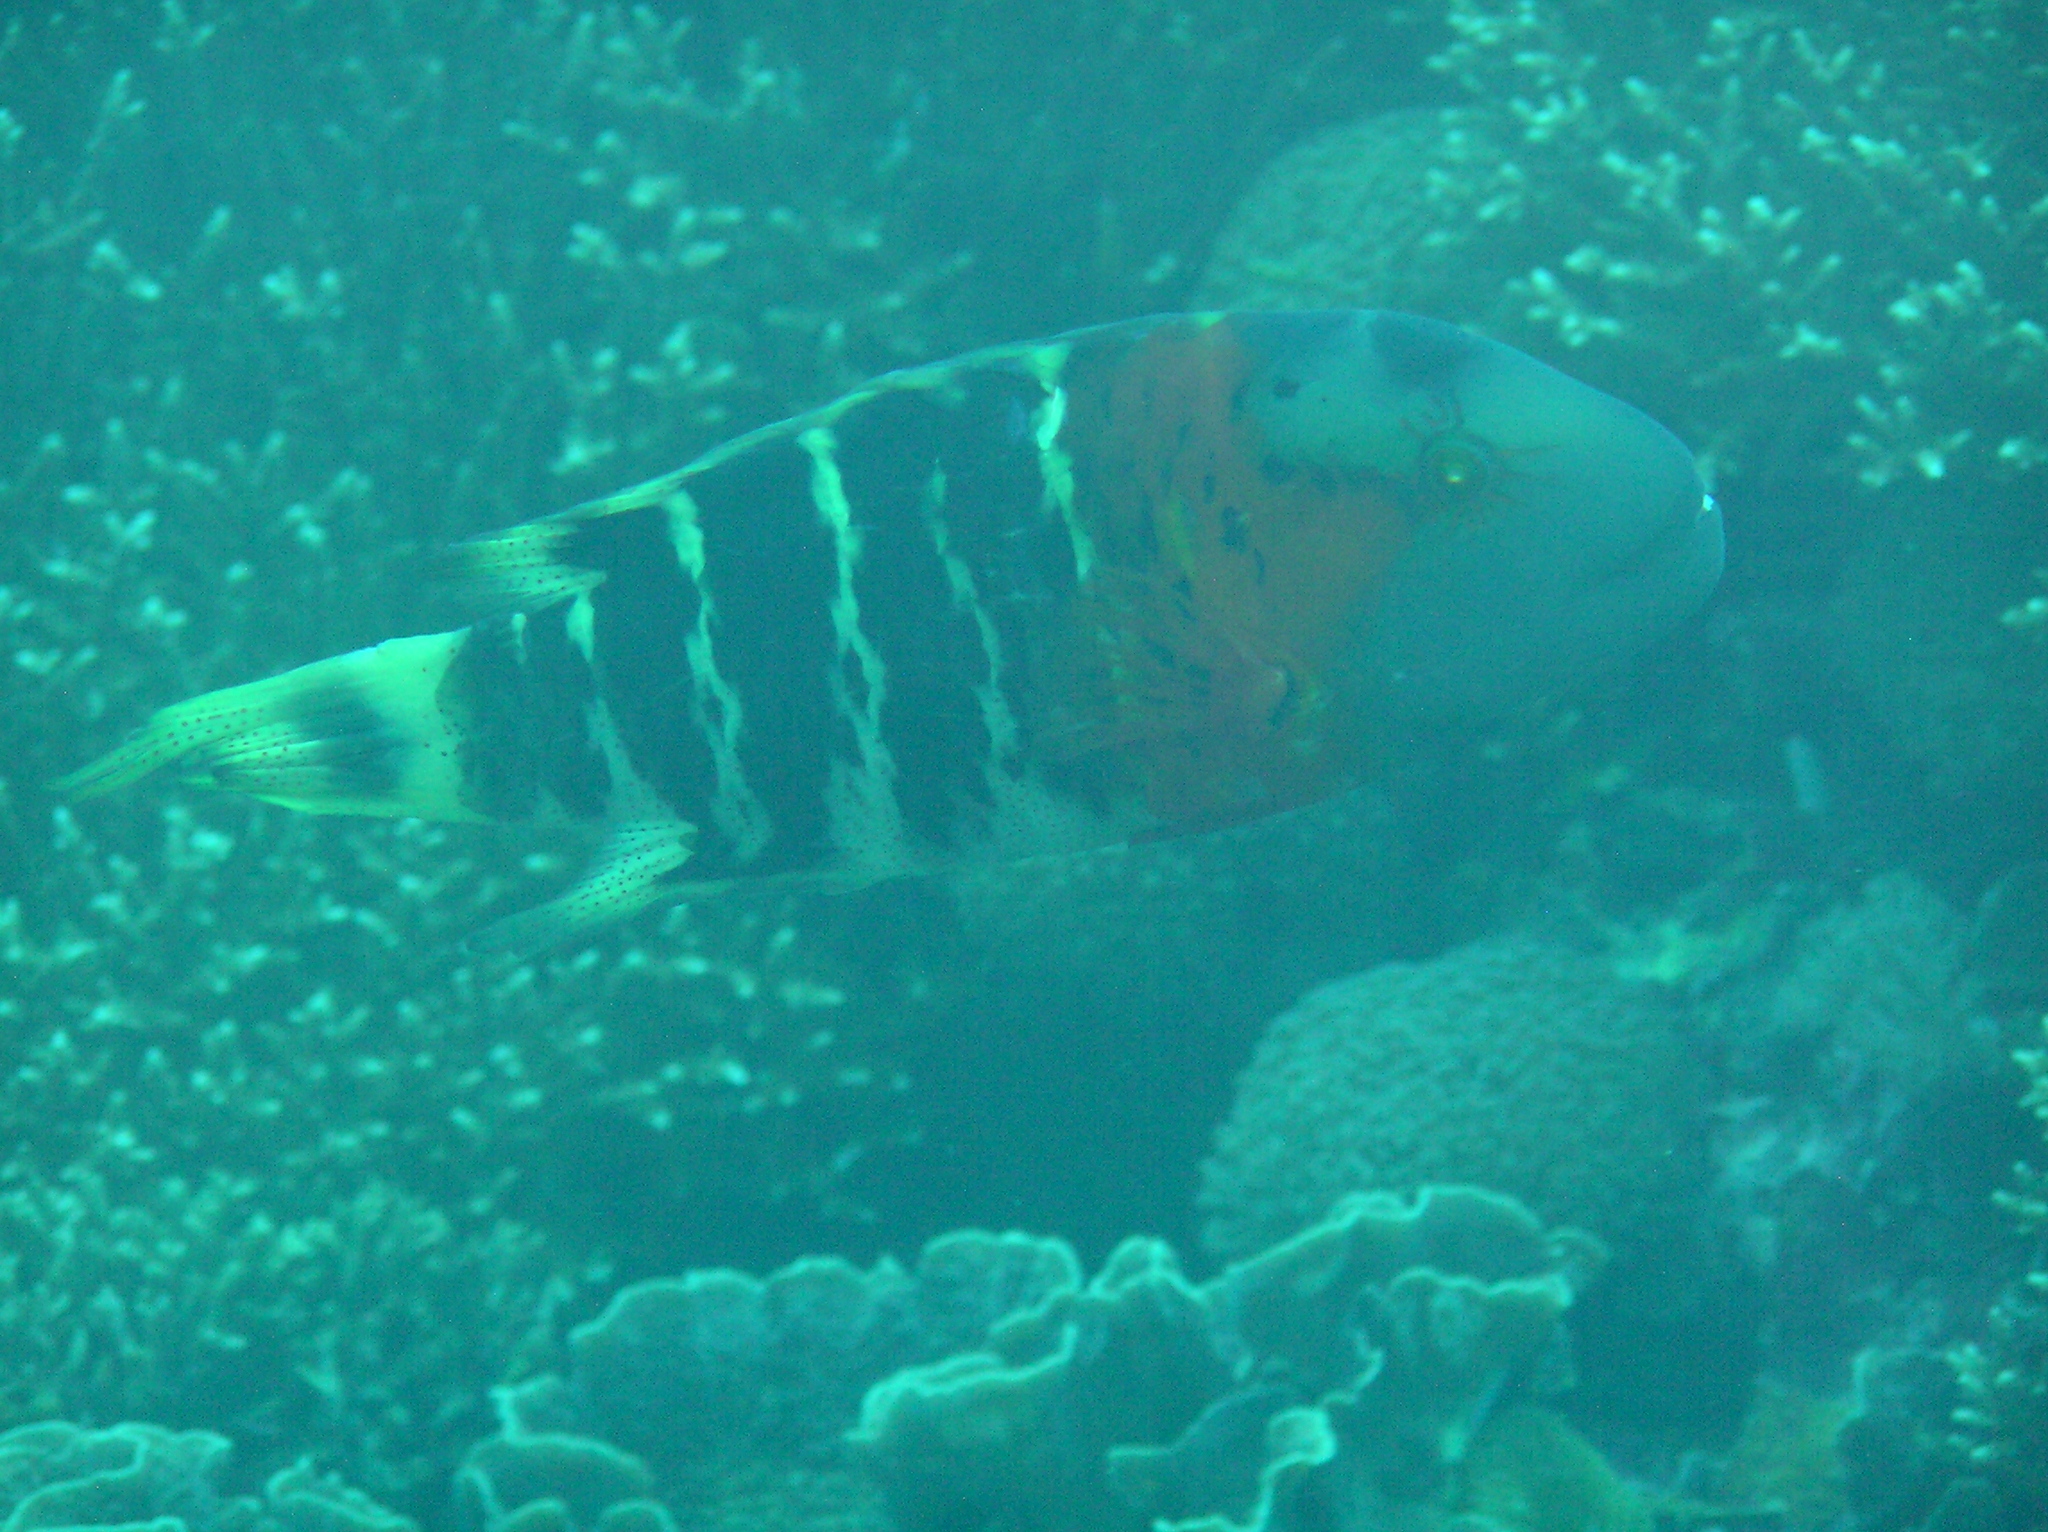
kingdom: Animalia
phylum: Chordata
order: Perciformes
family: Labridae
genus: Cheilinus
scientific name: Cheilinus fasciatus
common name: Red-breasted wrasse
